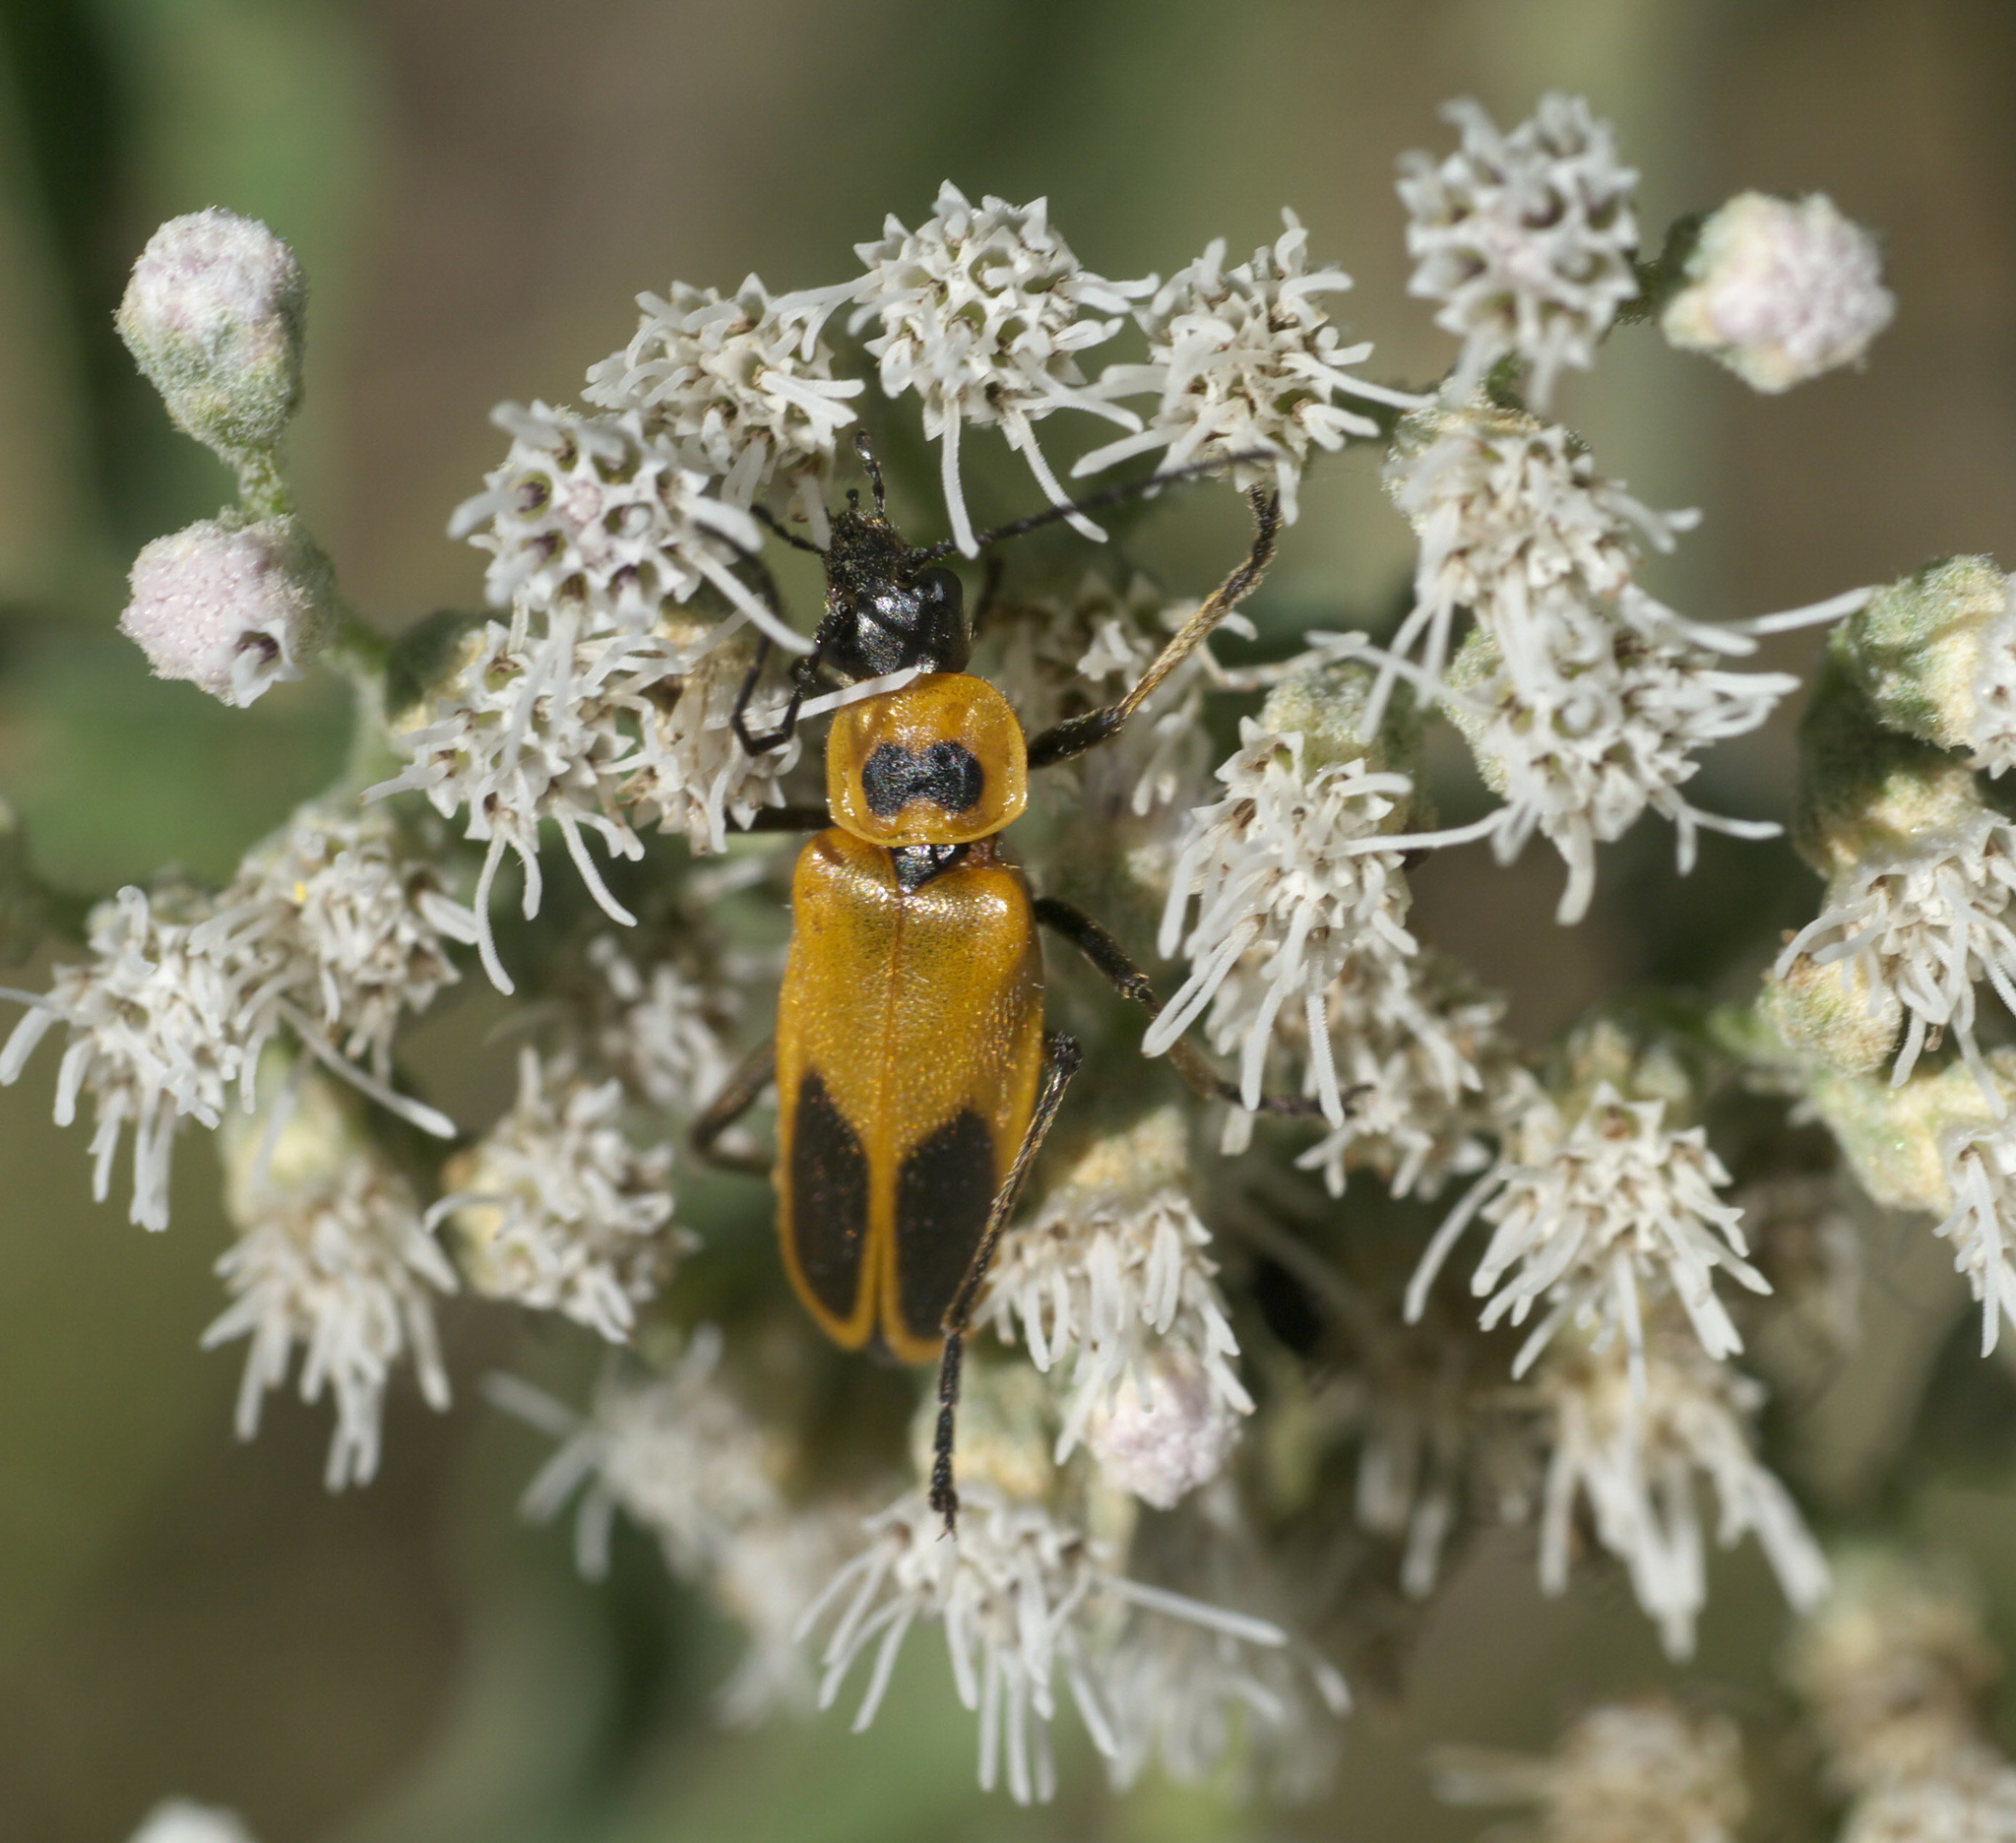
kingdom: Animalia
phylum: Arthropoda
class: Insecta
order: Coleoptera
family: Cantharidae
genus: Chauliognathus
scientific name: Chauliognathus pensylvanicus
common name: Goldenrod soldier beetle
